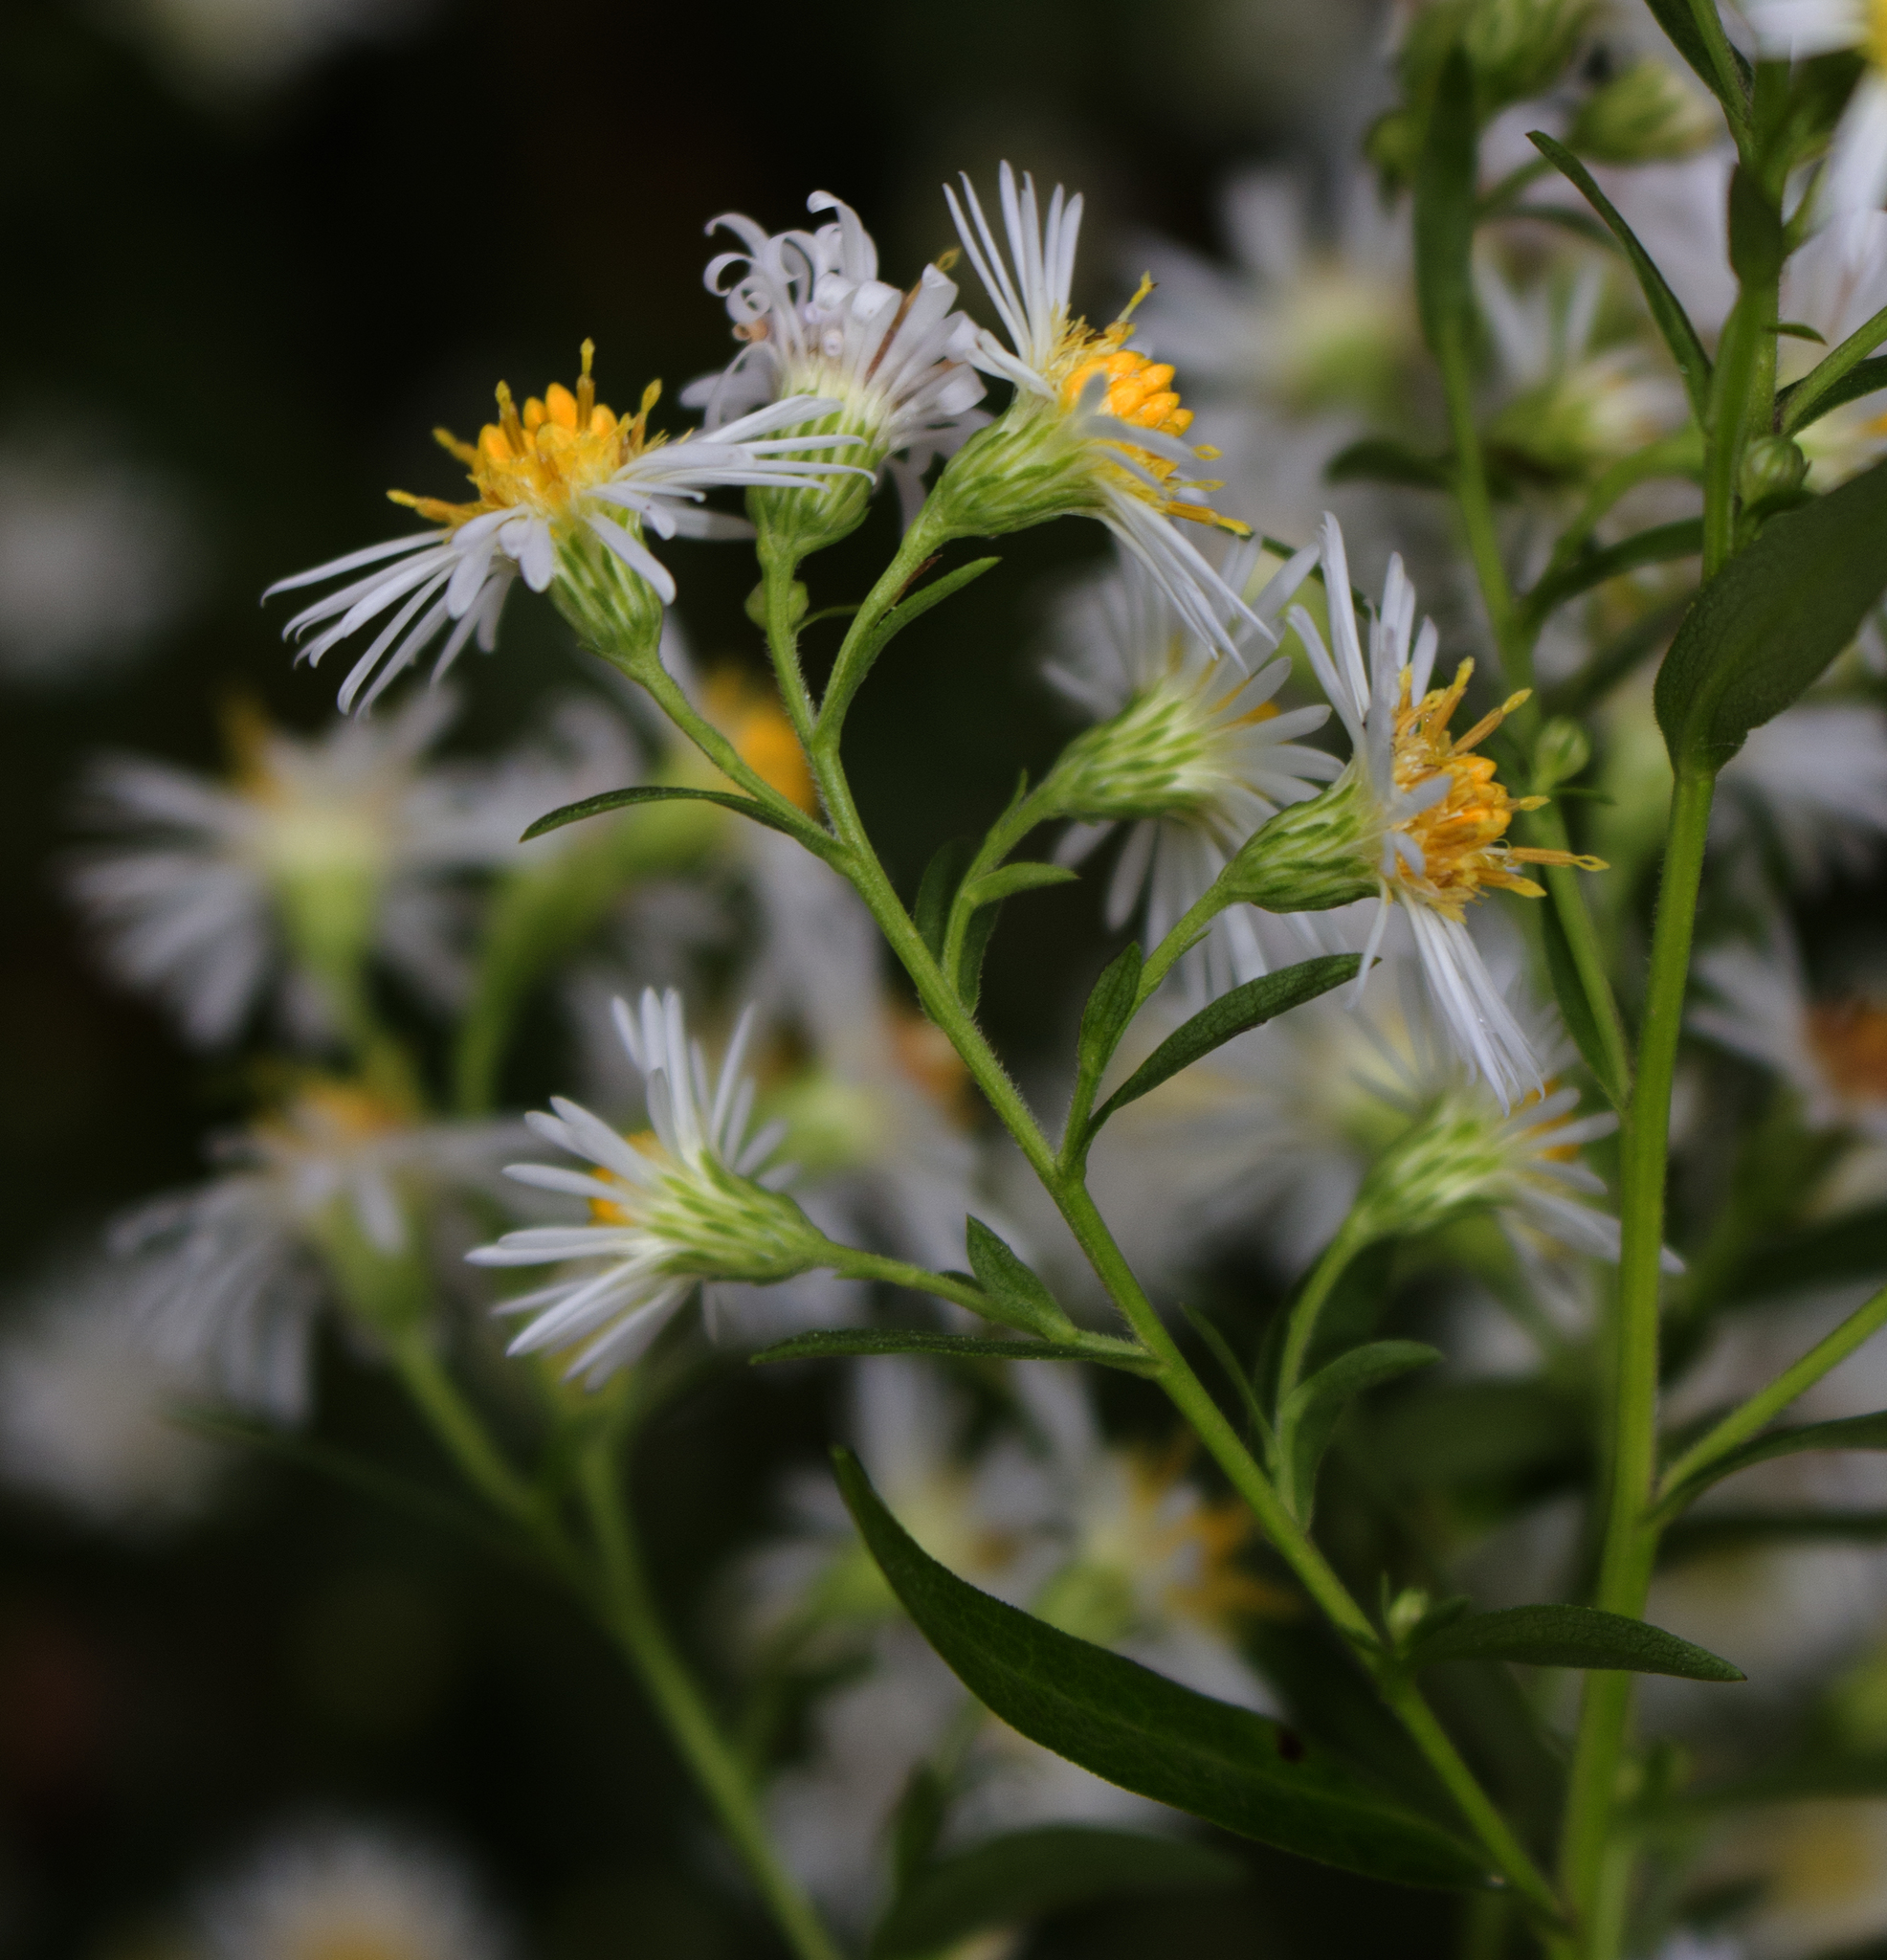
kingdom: Plantae
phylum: Tracheophyta
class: Magnoliopsida
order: Asterales
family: Asteraceae
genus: Symphyotrichum
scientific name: Symphyotrichum lanceolatum
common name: Panicled aster
